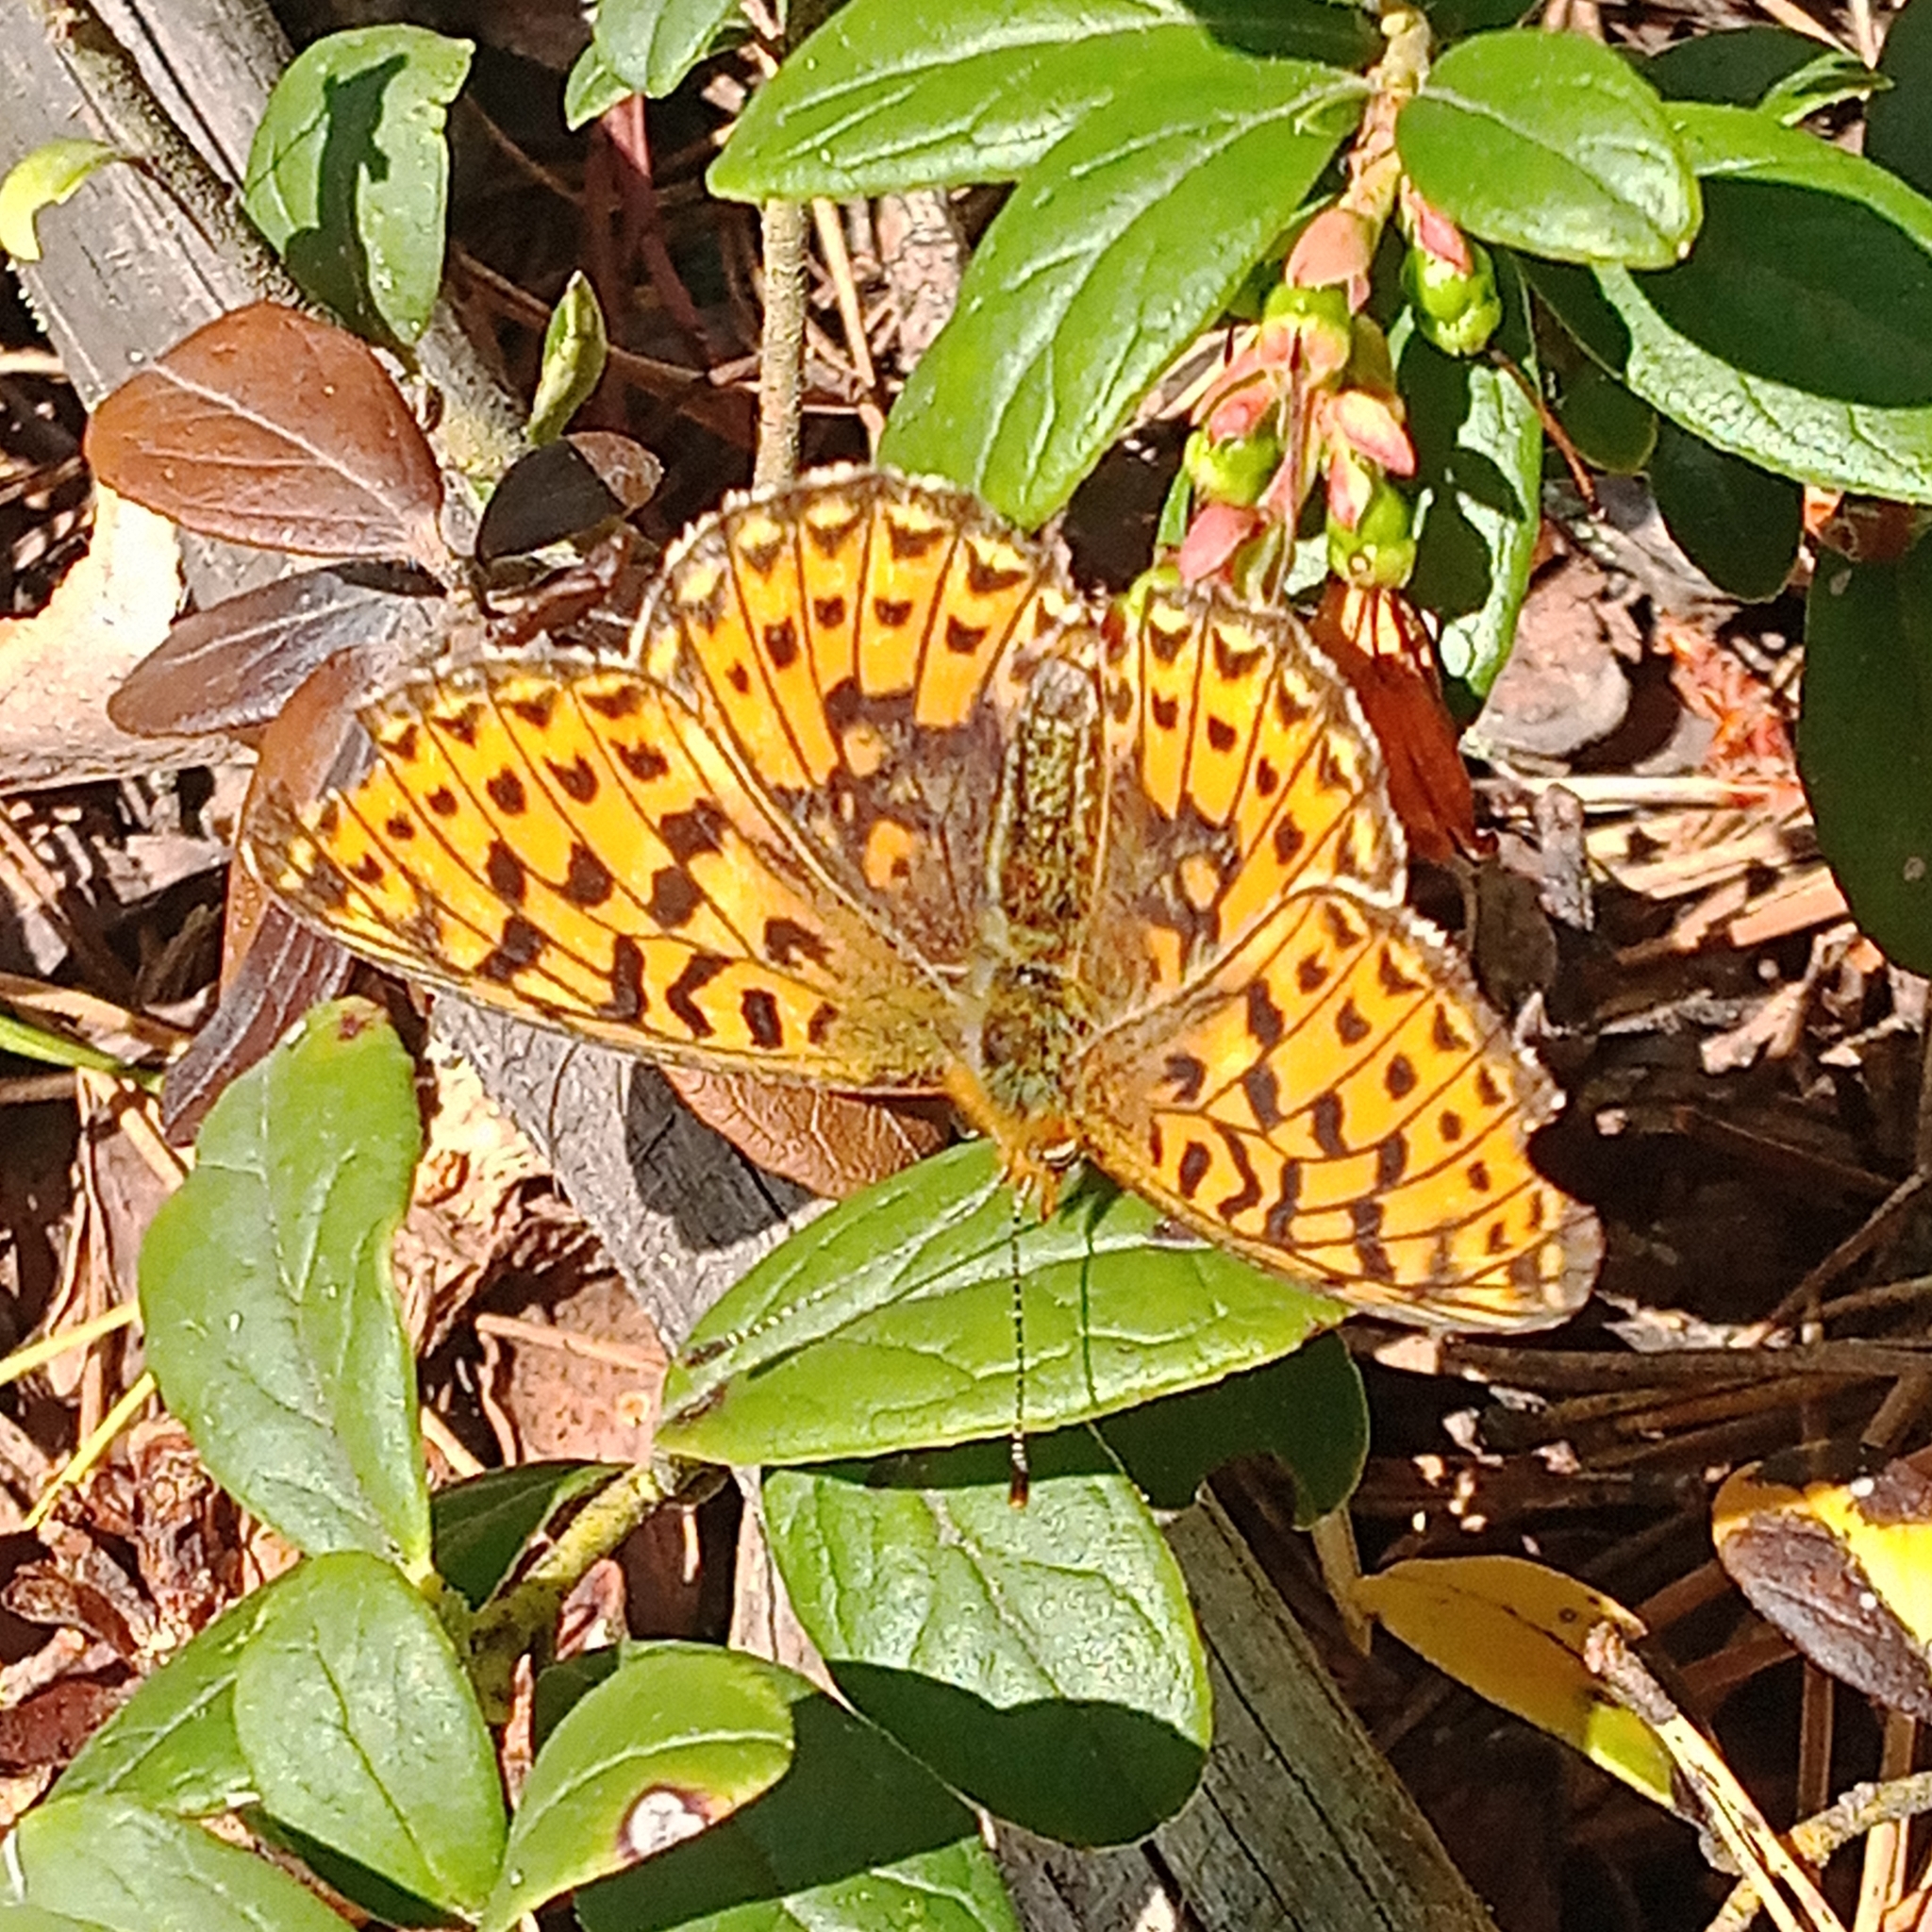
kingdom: Animalia
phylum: Arthropoda
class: Insecta
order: Lepidoptera
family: Nymphalidae
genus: Clossiana
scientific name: Clossiana euphrosyne
